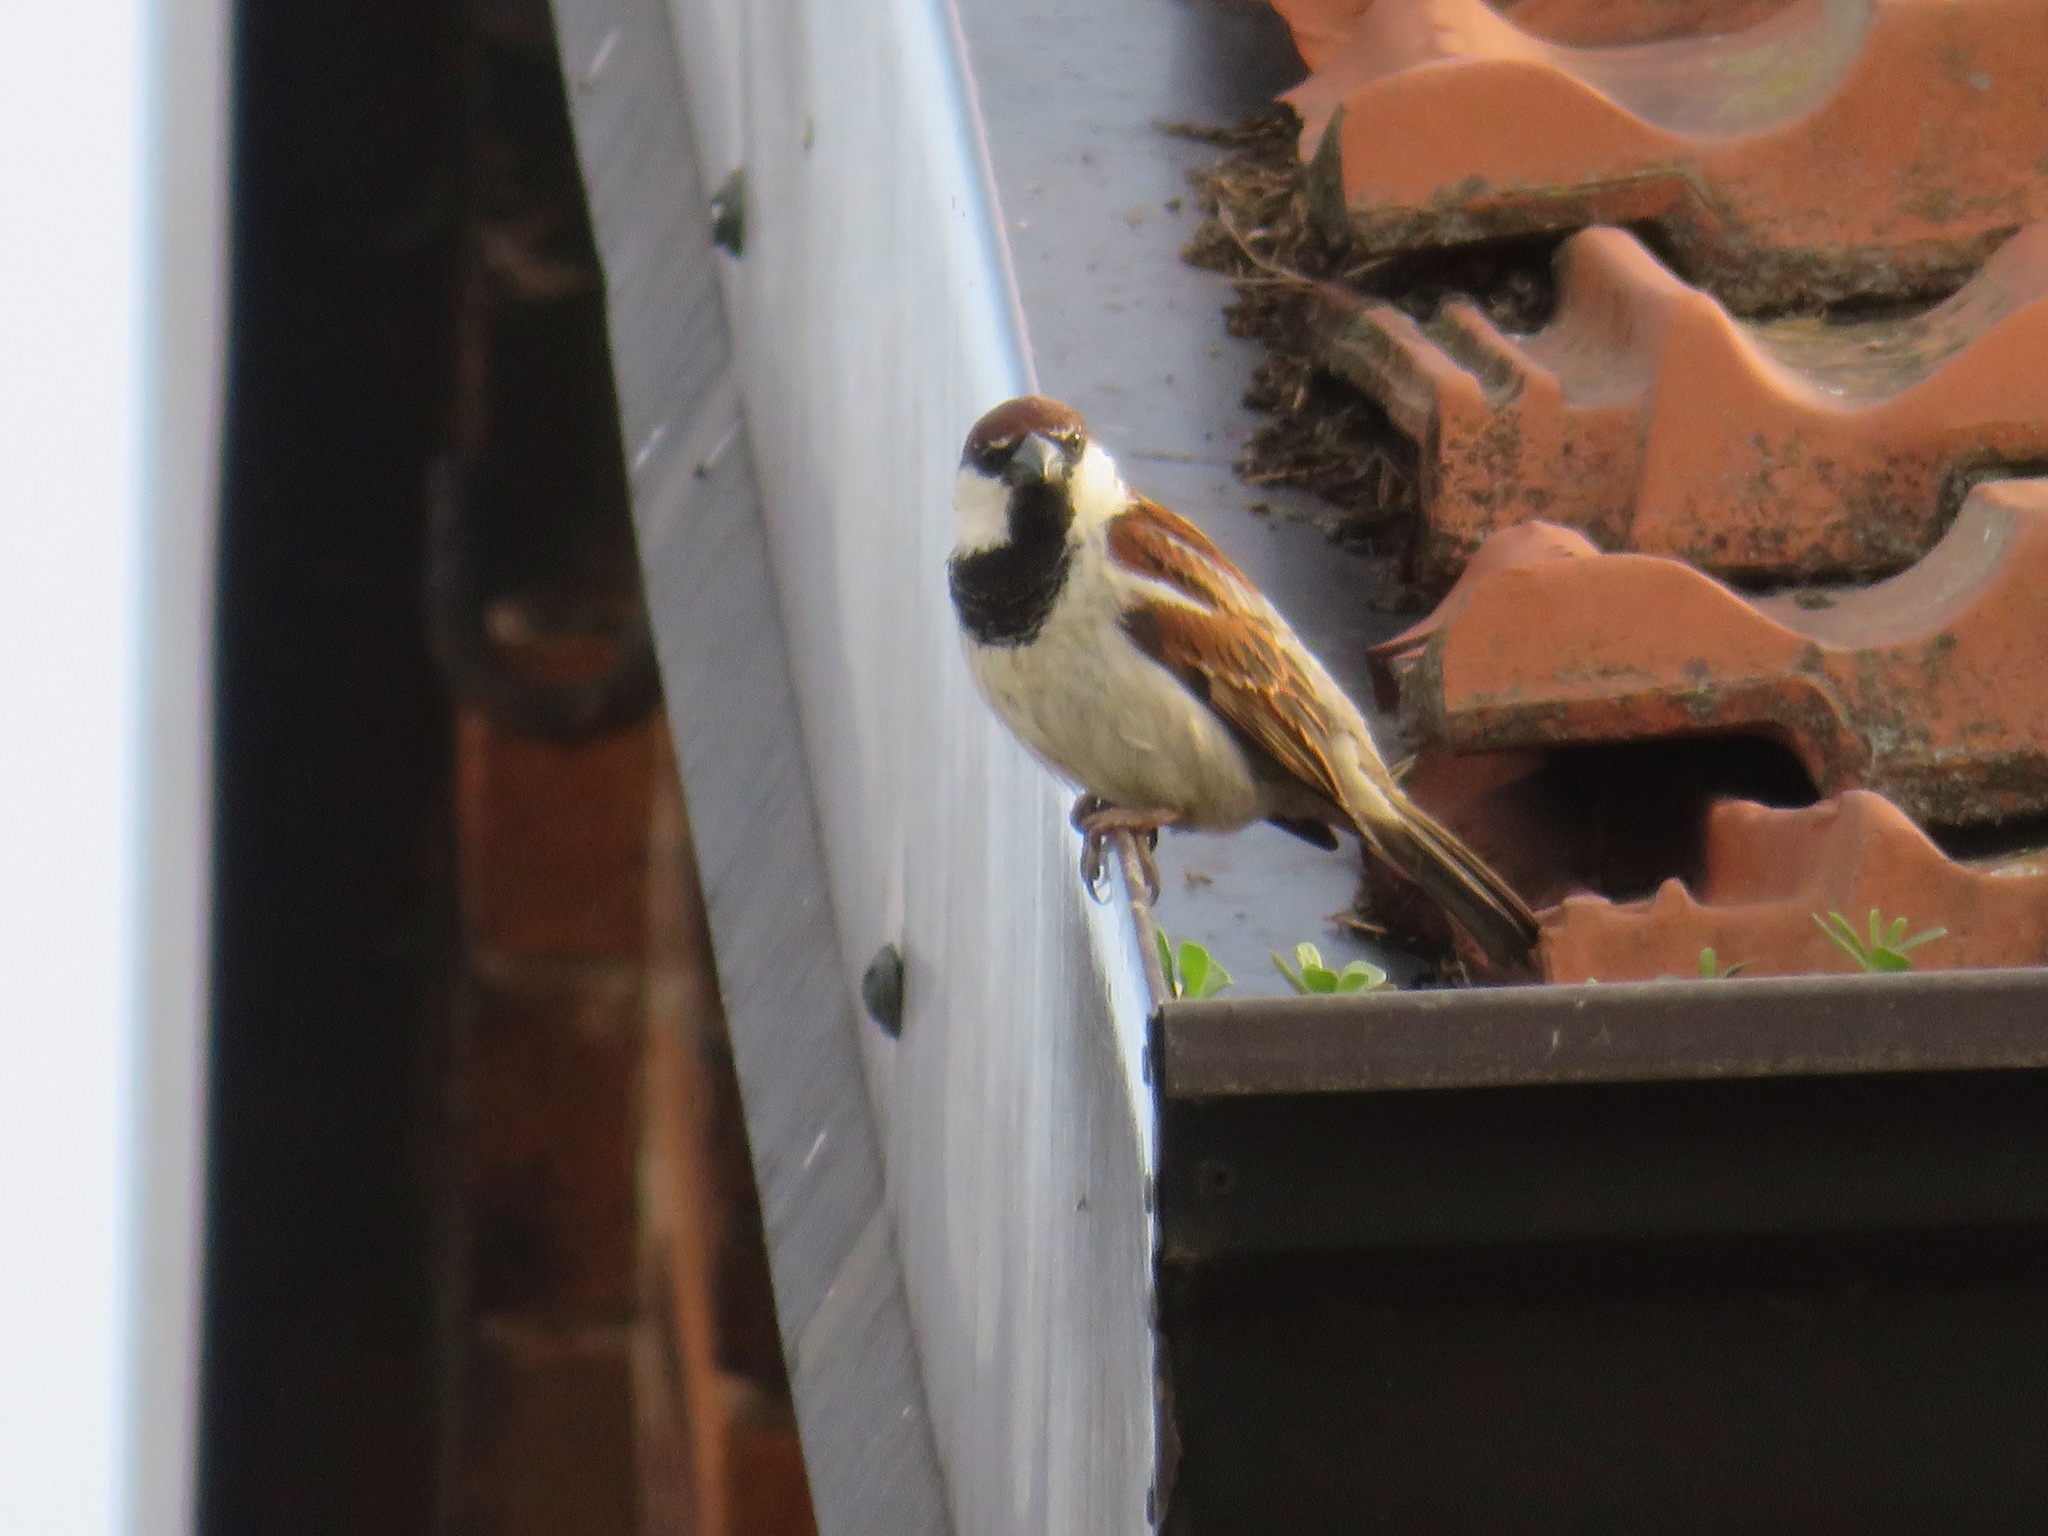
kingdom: Animalia
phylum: Chordata
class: Aves
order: Passeriformes
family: Passeridae
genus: Passer
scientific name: Passer italiae
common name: Italian sparrow
